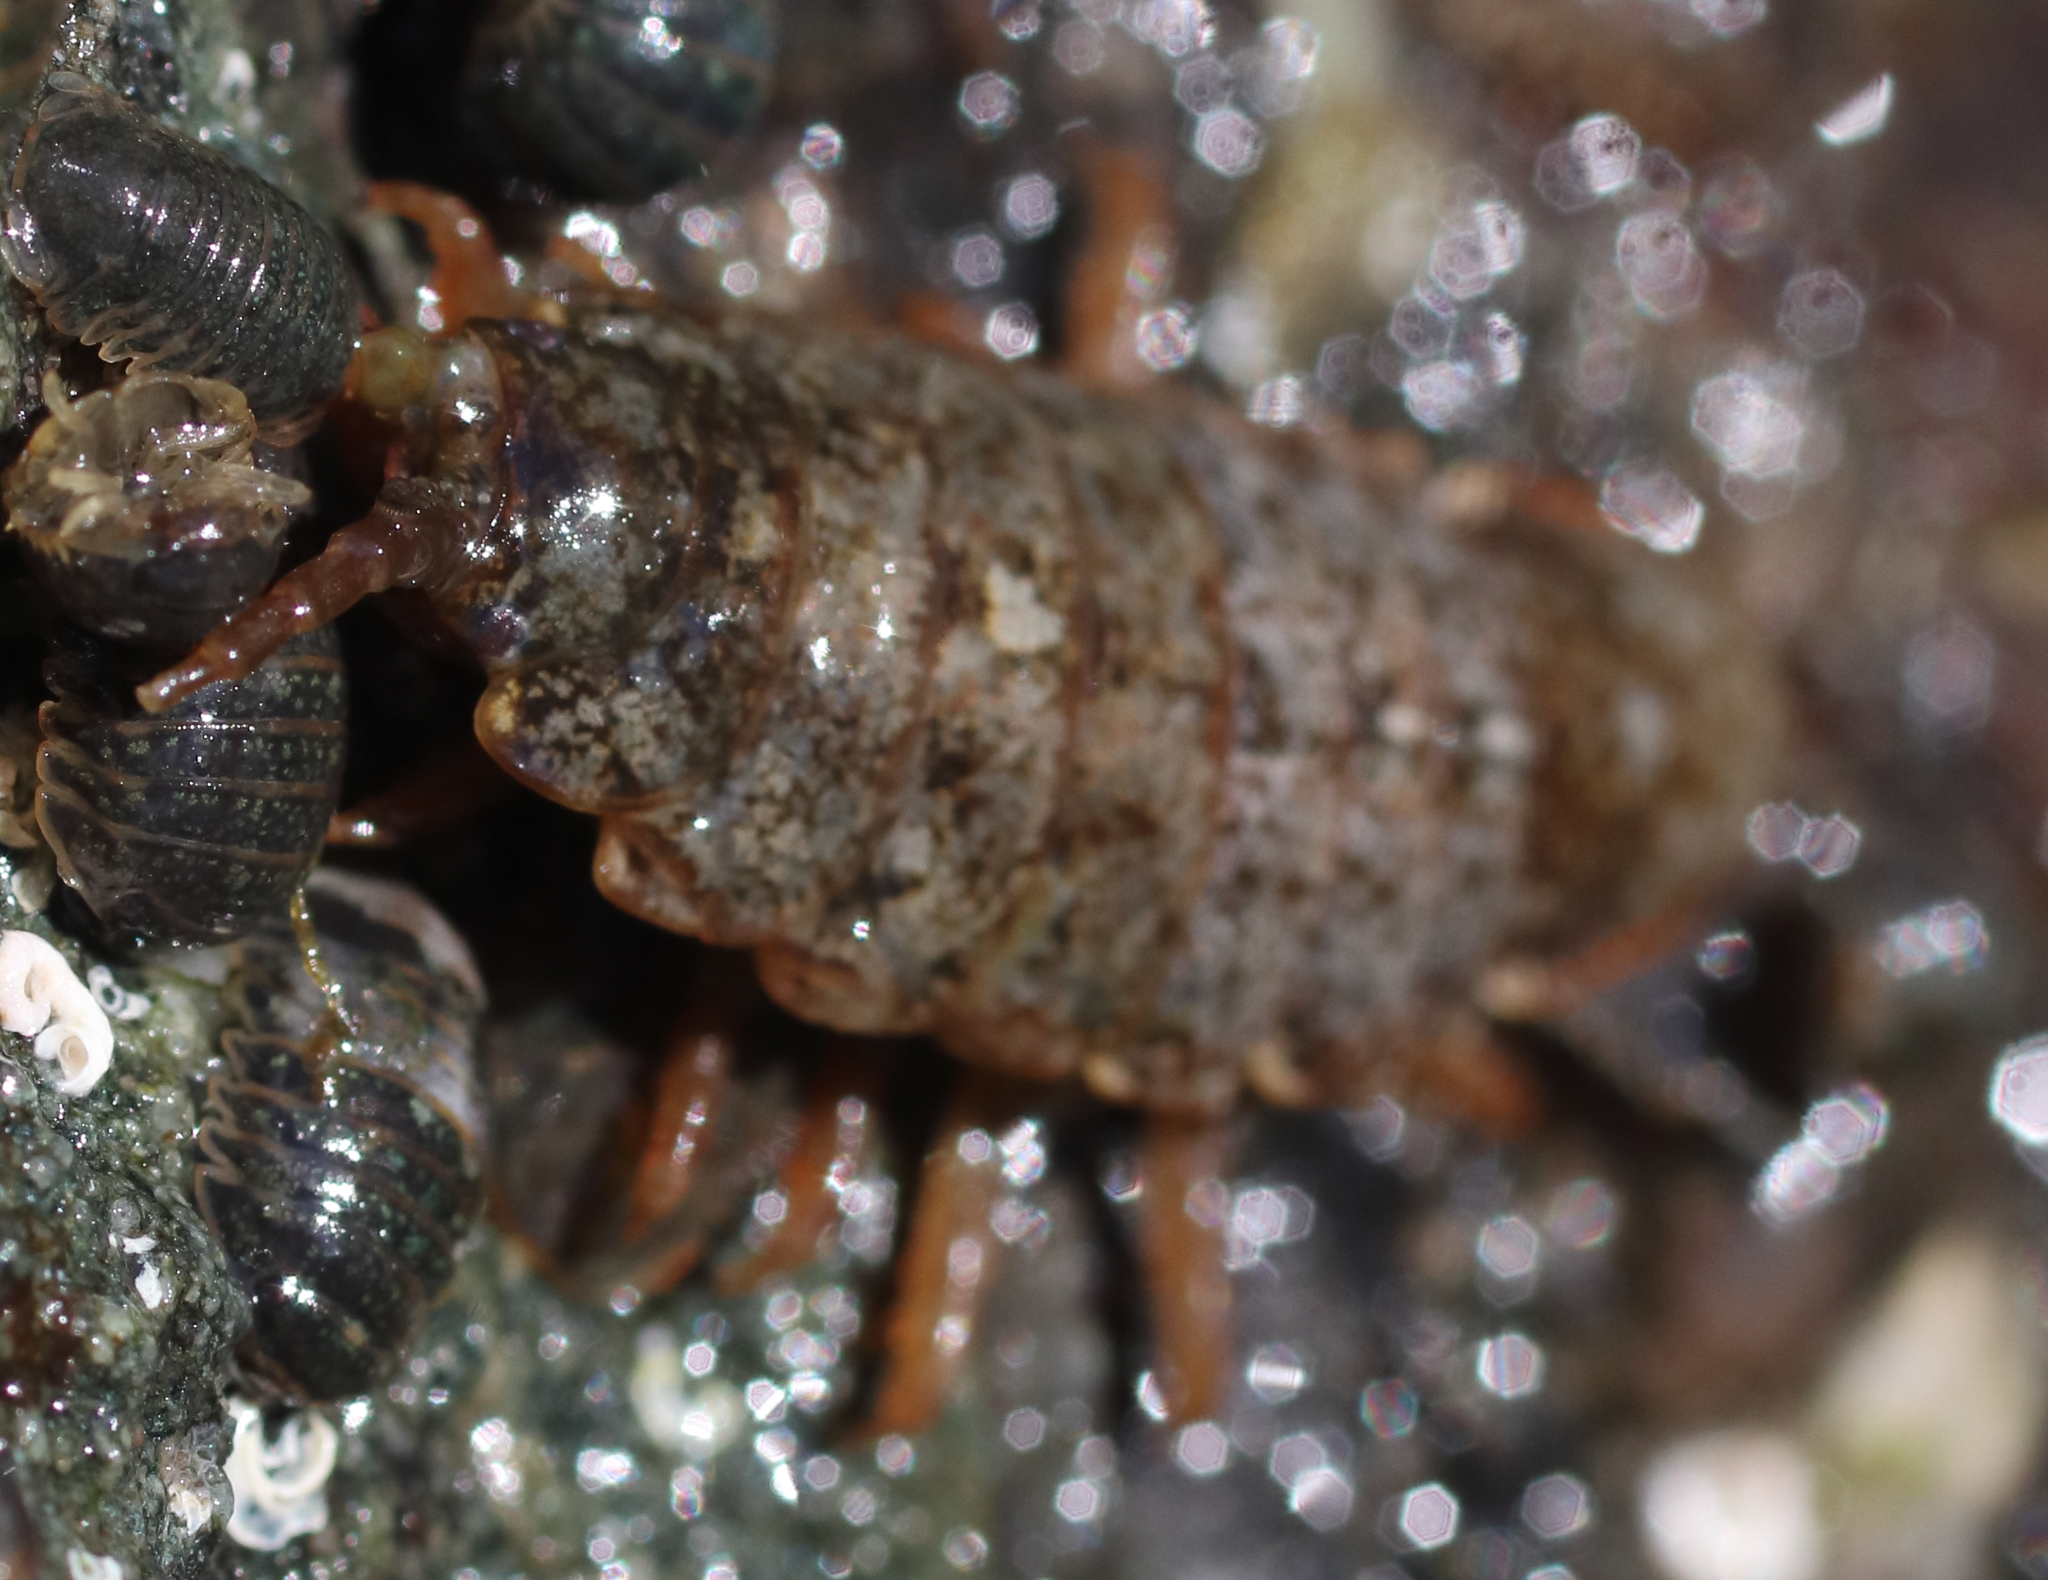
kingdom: Animalia
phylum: Arthropoda
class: Malacostraca
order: Isopoda
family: Idoteidae
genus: Pentidotea
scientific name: Pentidotea wosnesenskii
